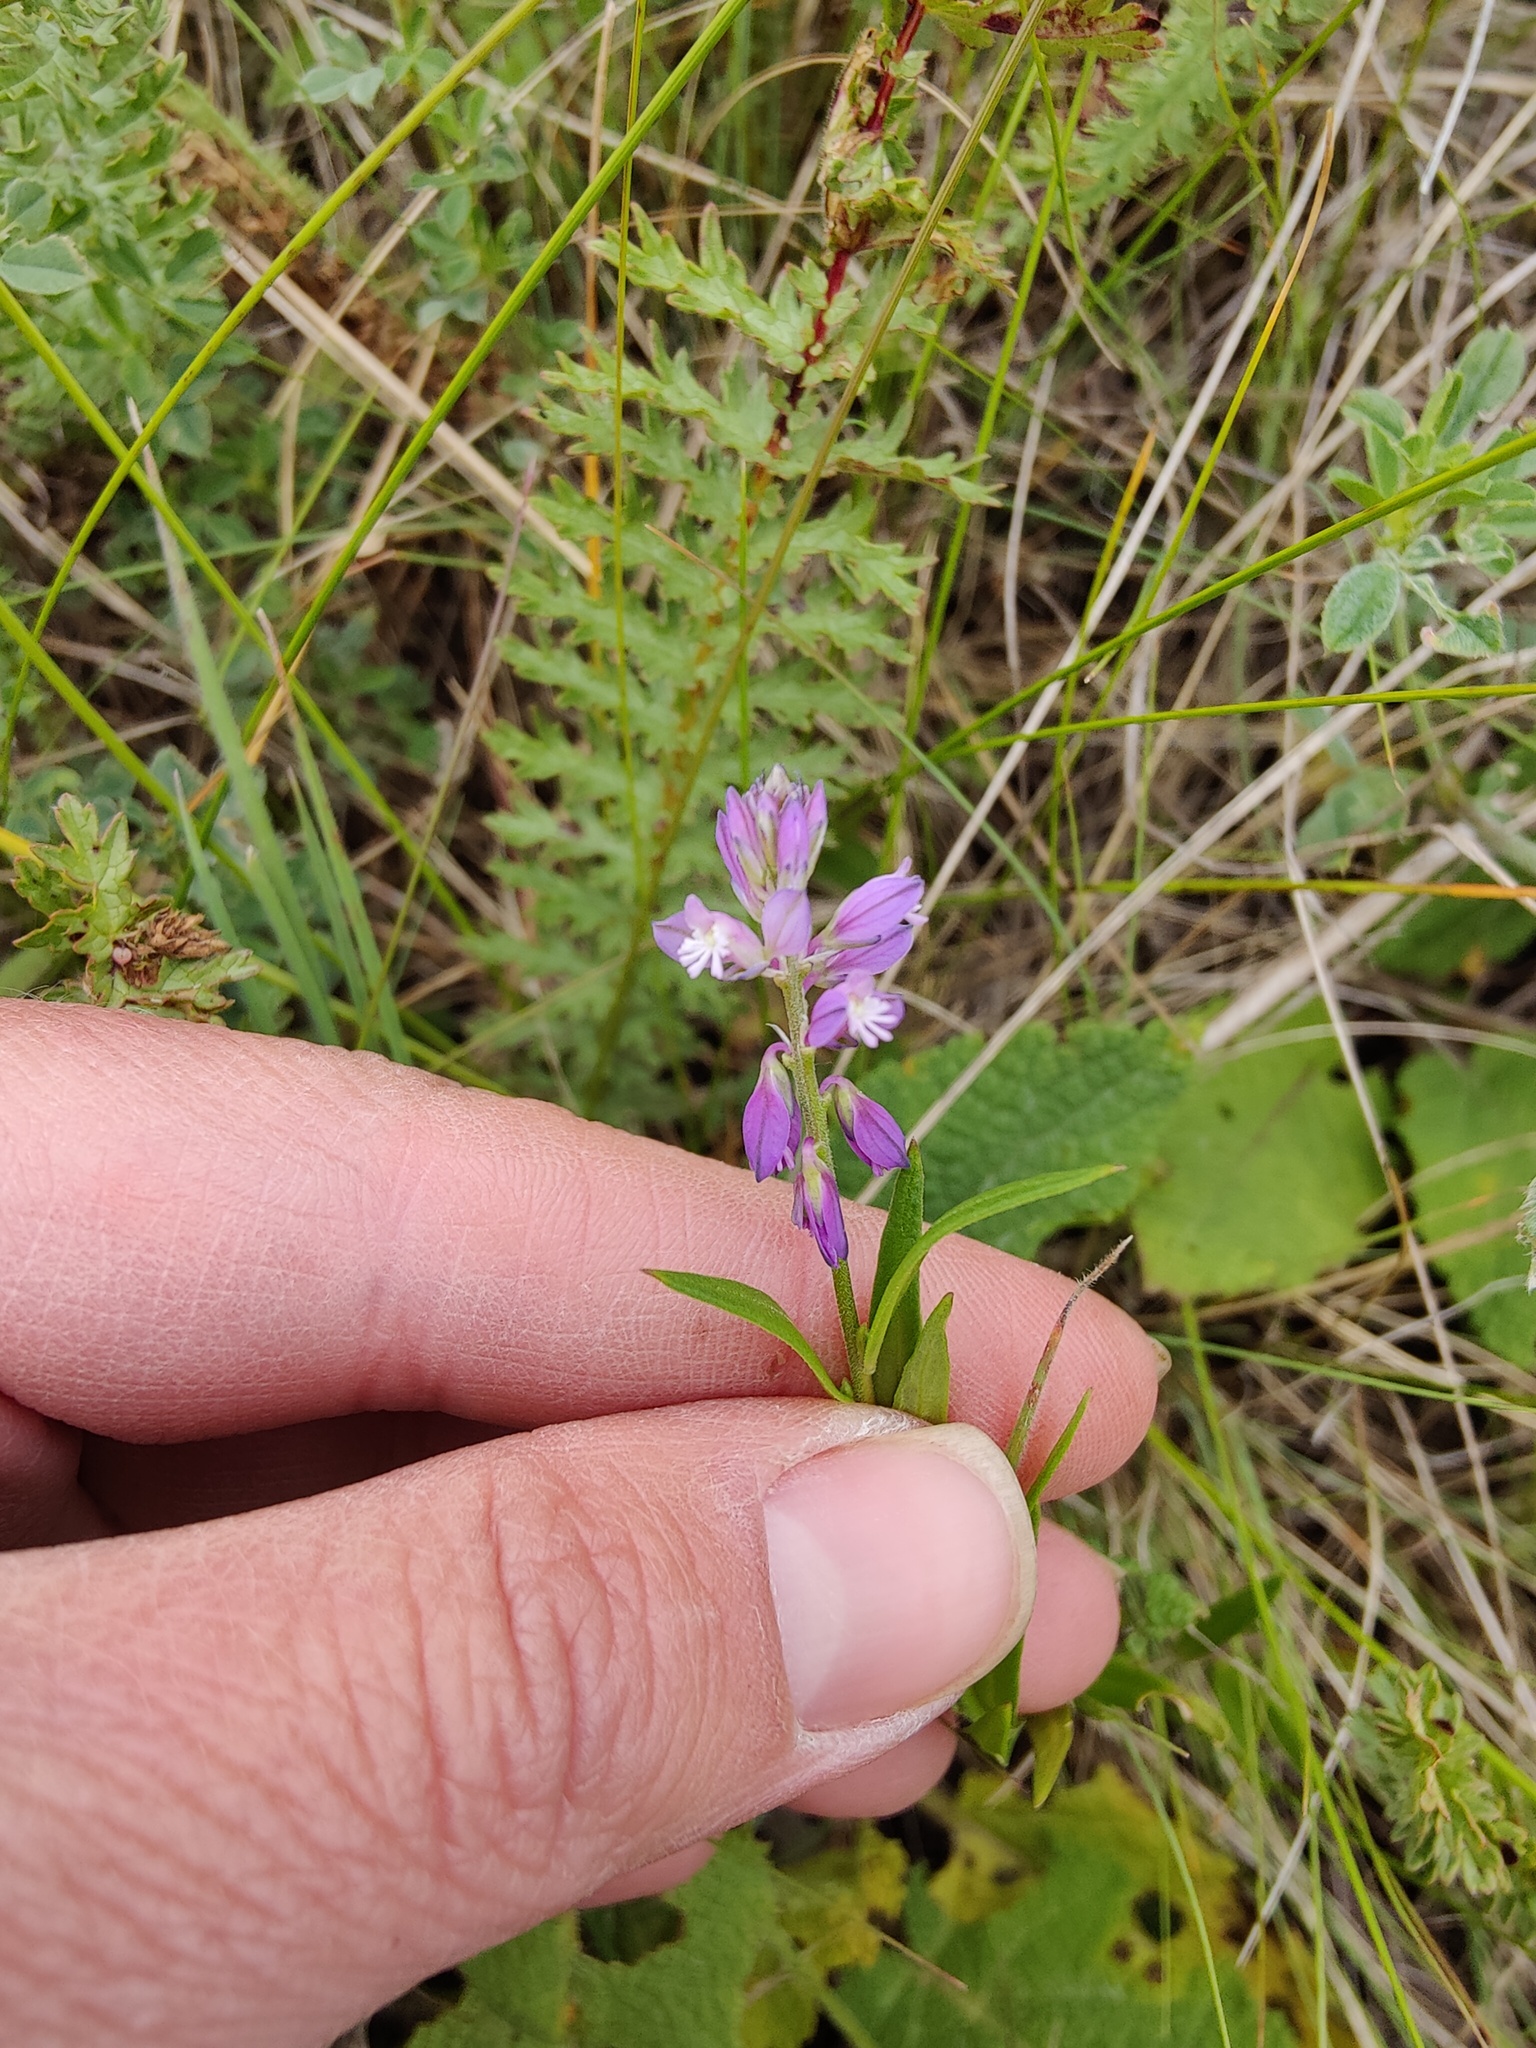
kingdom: Plantae
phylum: Tracheophyta
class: Magnoliopsida
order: Fabales
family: Polygalaceae
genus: Polygala
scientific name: Polygala comosa
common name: Tufted milkwort
